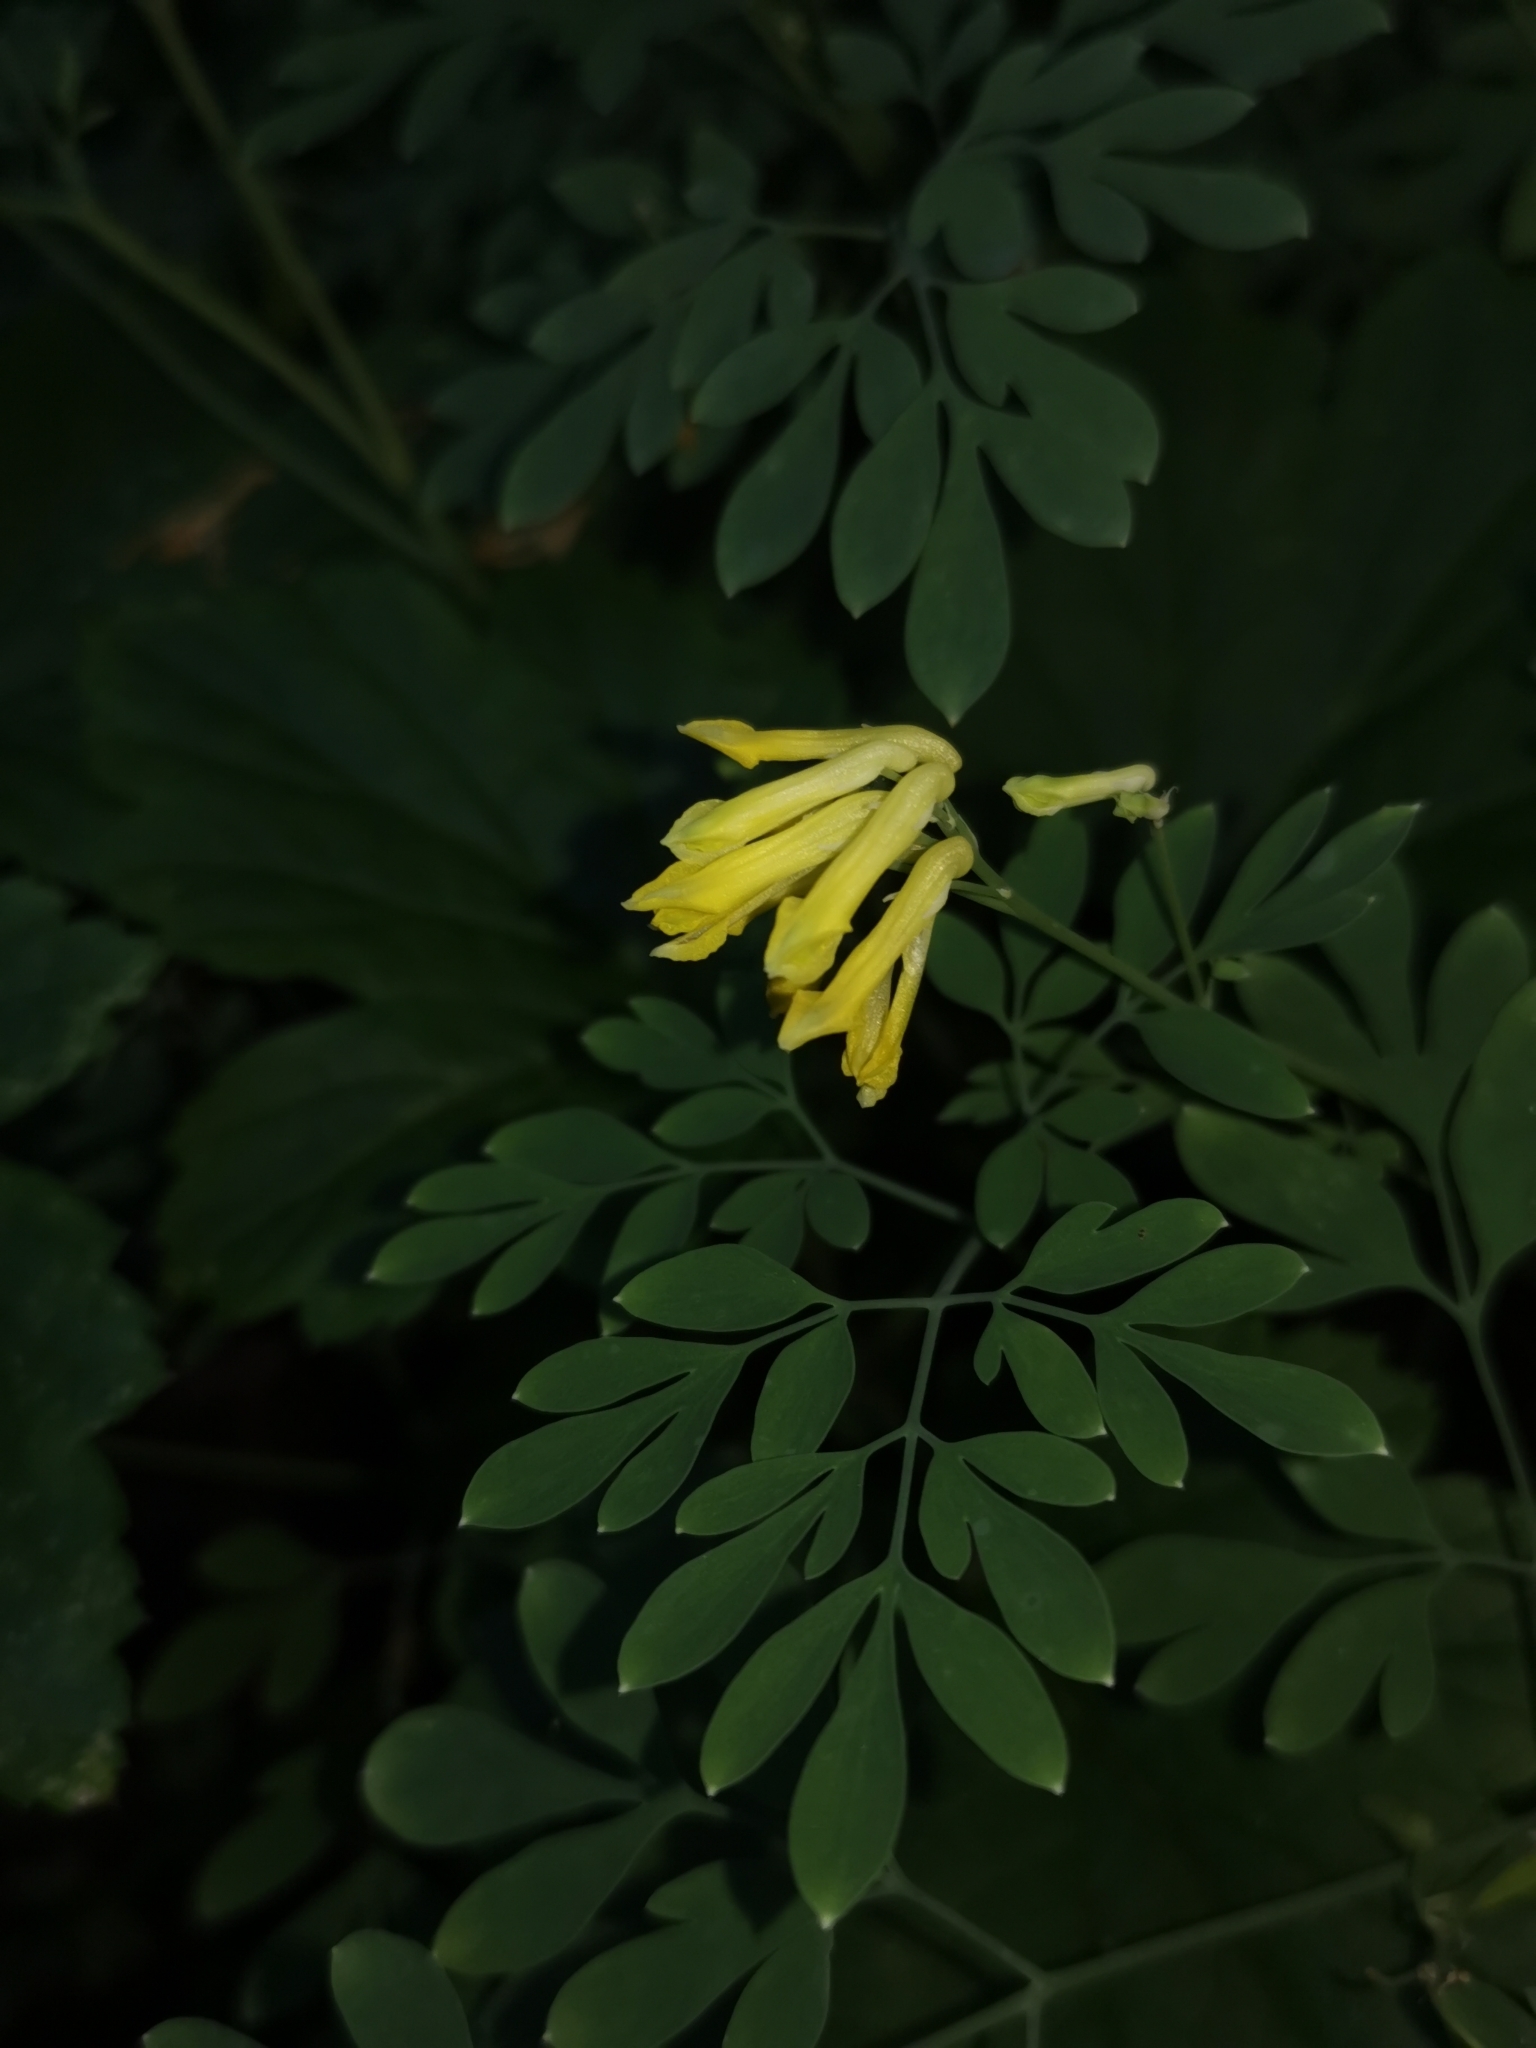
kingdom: Plantae
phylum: Tracheophyta
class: Magnoliopsida
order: Ranunculales
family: Papaveraceae
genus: Pseudofumaria
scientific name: Pseudofumaria lutea
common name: Yellow corydalis
